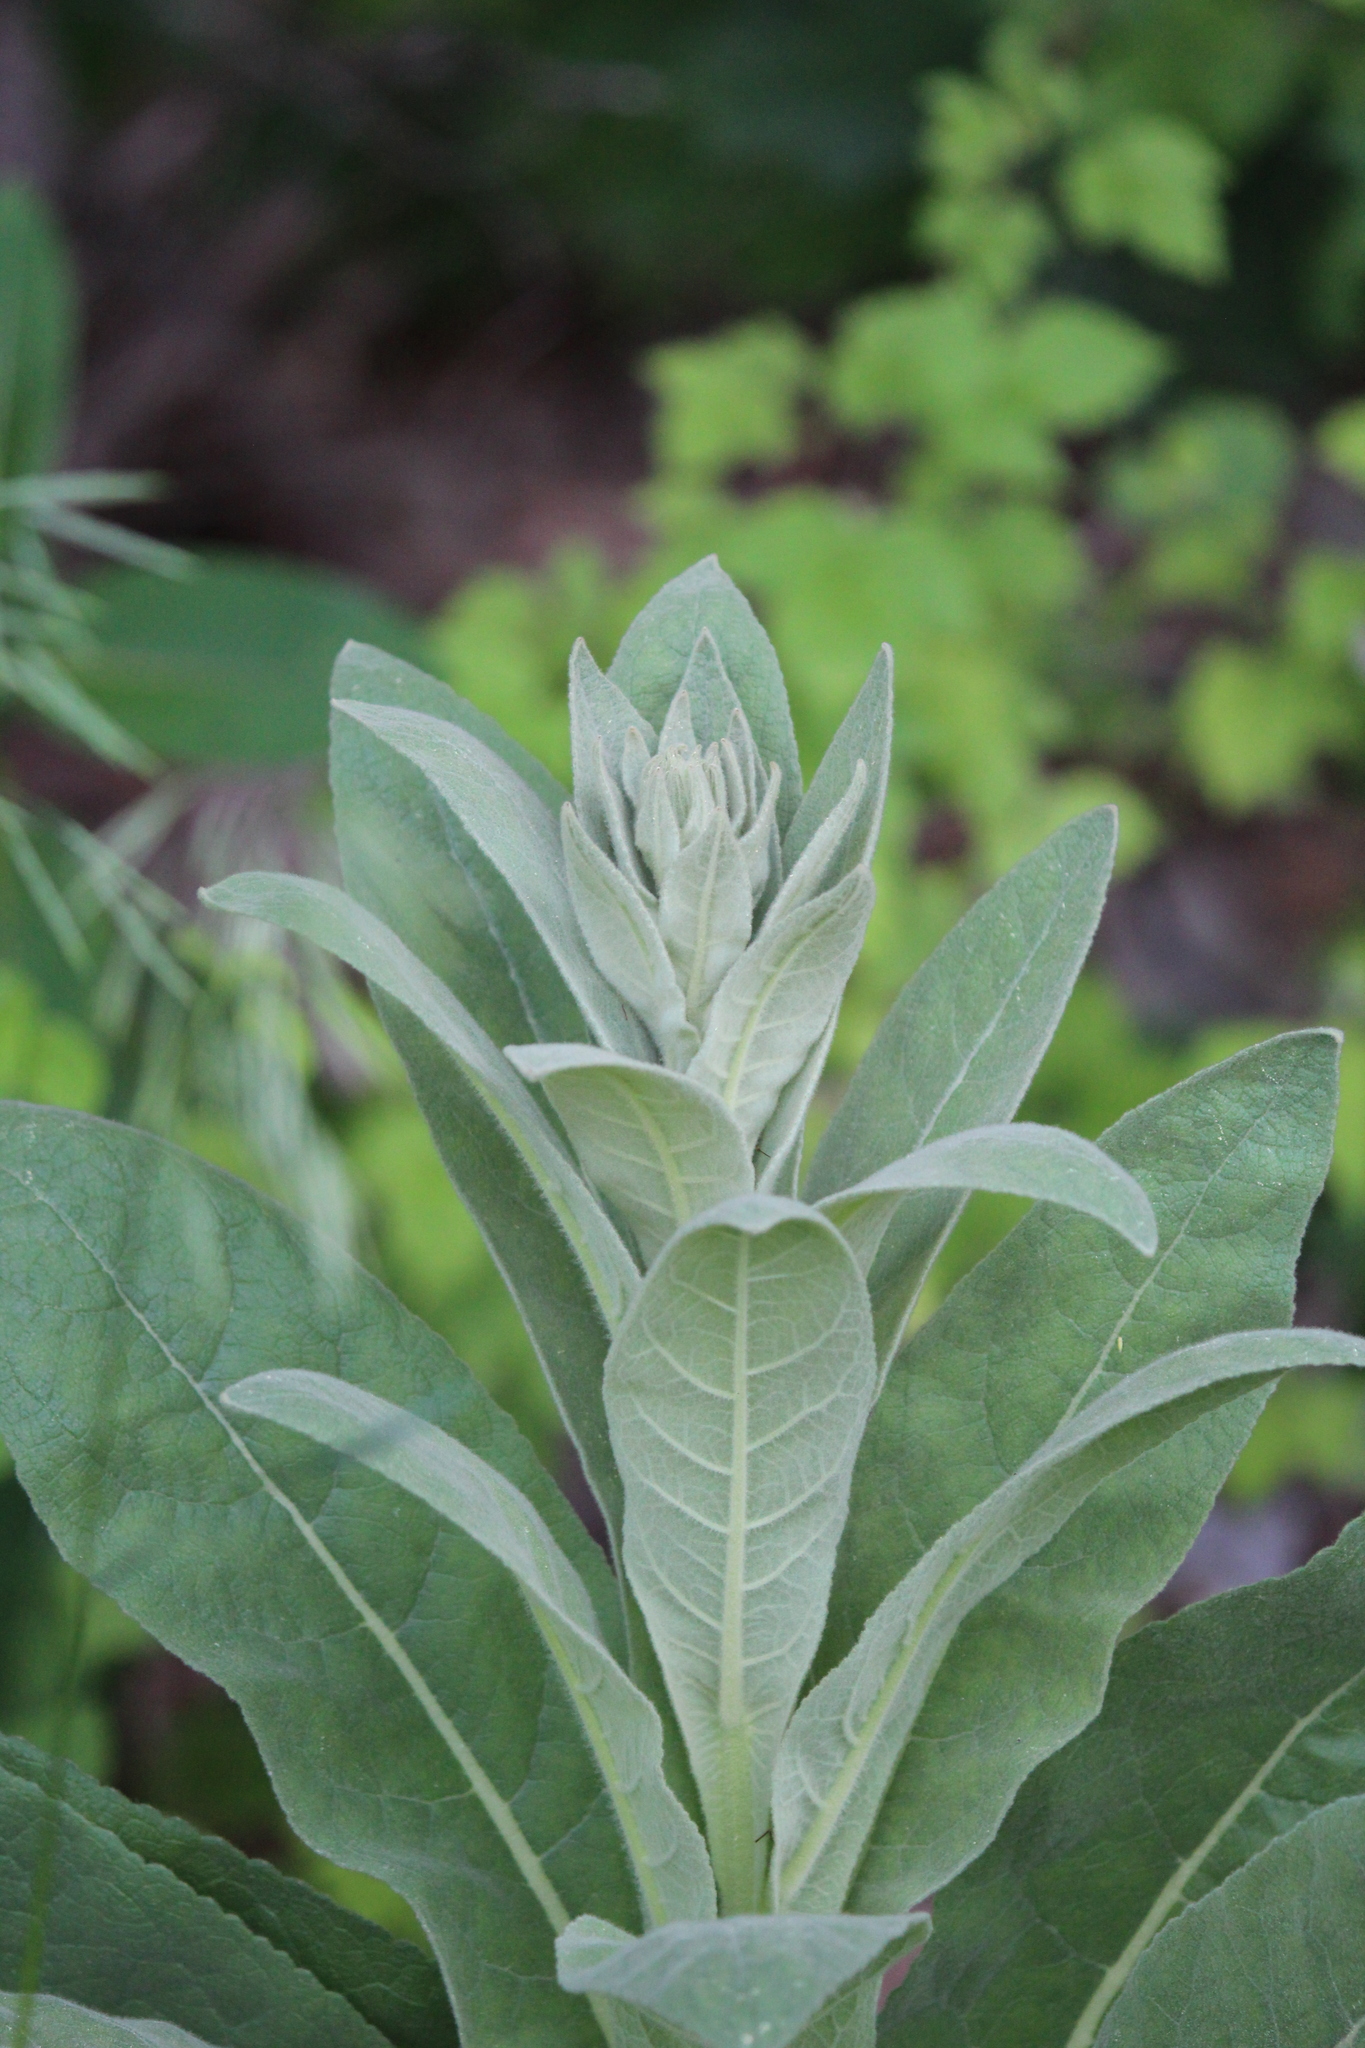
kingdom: Plantae
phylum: Tracheophyta
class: Magnoliopsida
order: Lamiales
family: Scrophulariaceae
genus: Verbascum
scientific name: Verbascum thapsus
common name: Common mullein
